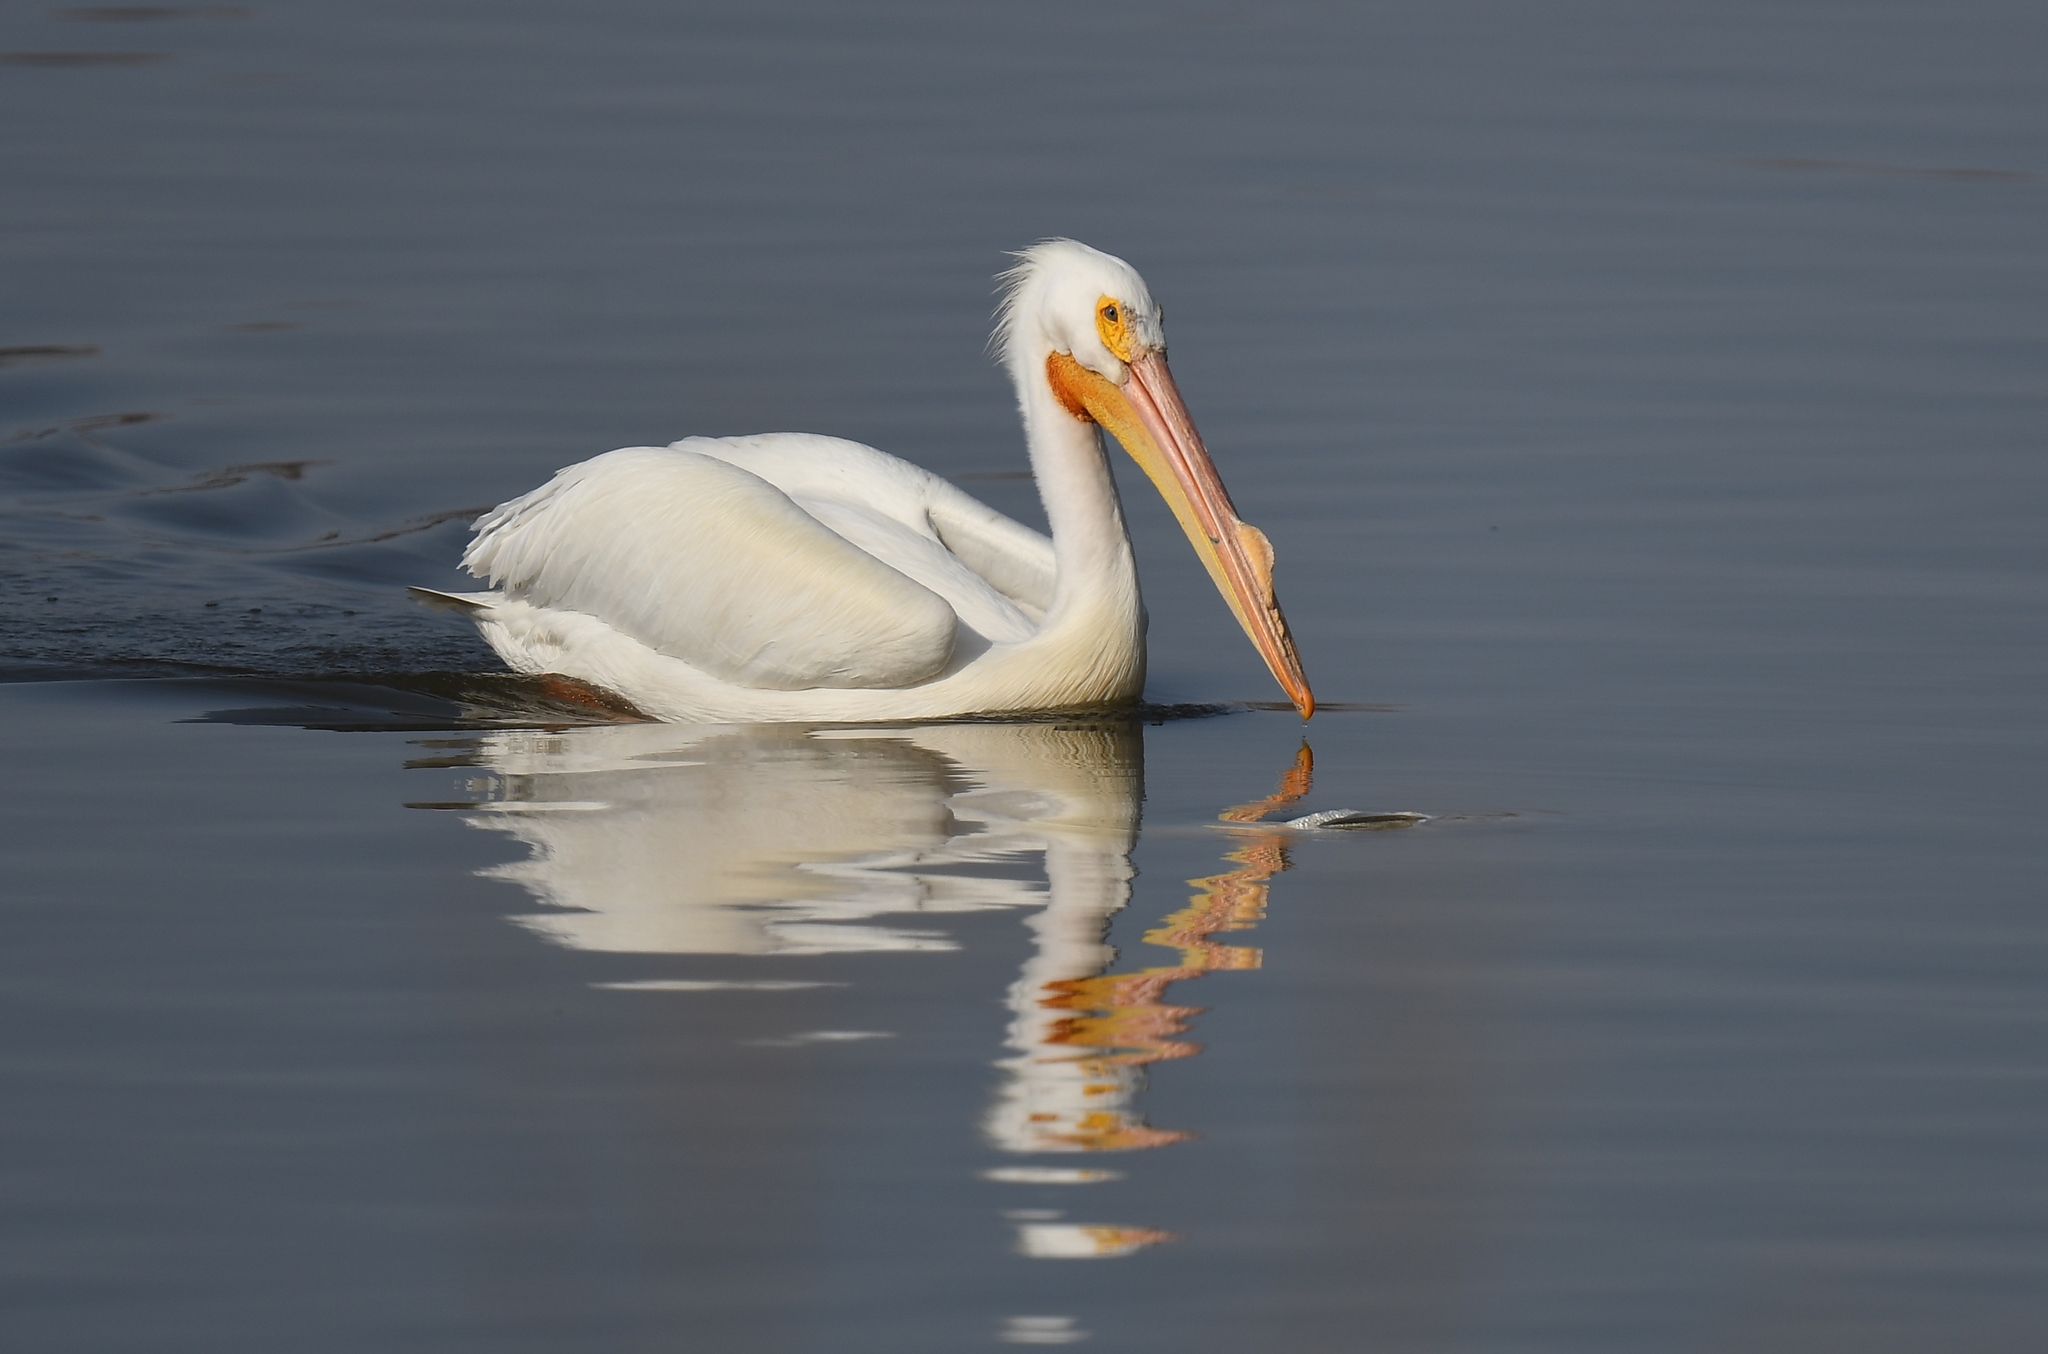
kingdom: Animalia
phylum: Chordata
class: Aves
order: Pelecaniformes
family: Pelecanidae
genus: Pelecanus
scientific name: Pelecanus erythrorhynchos
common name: American white pelican
